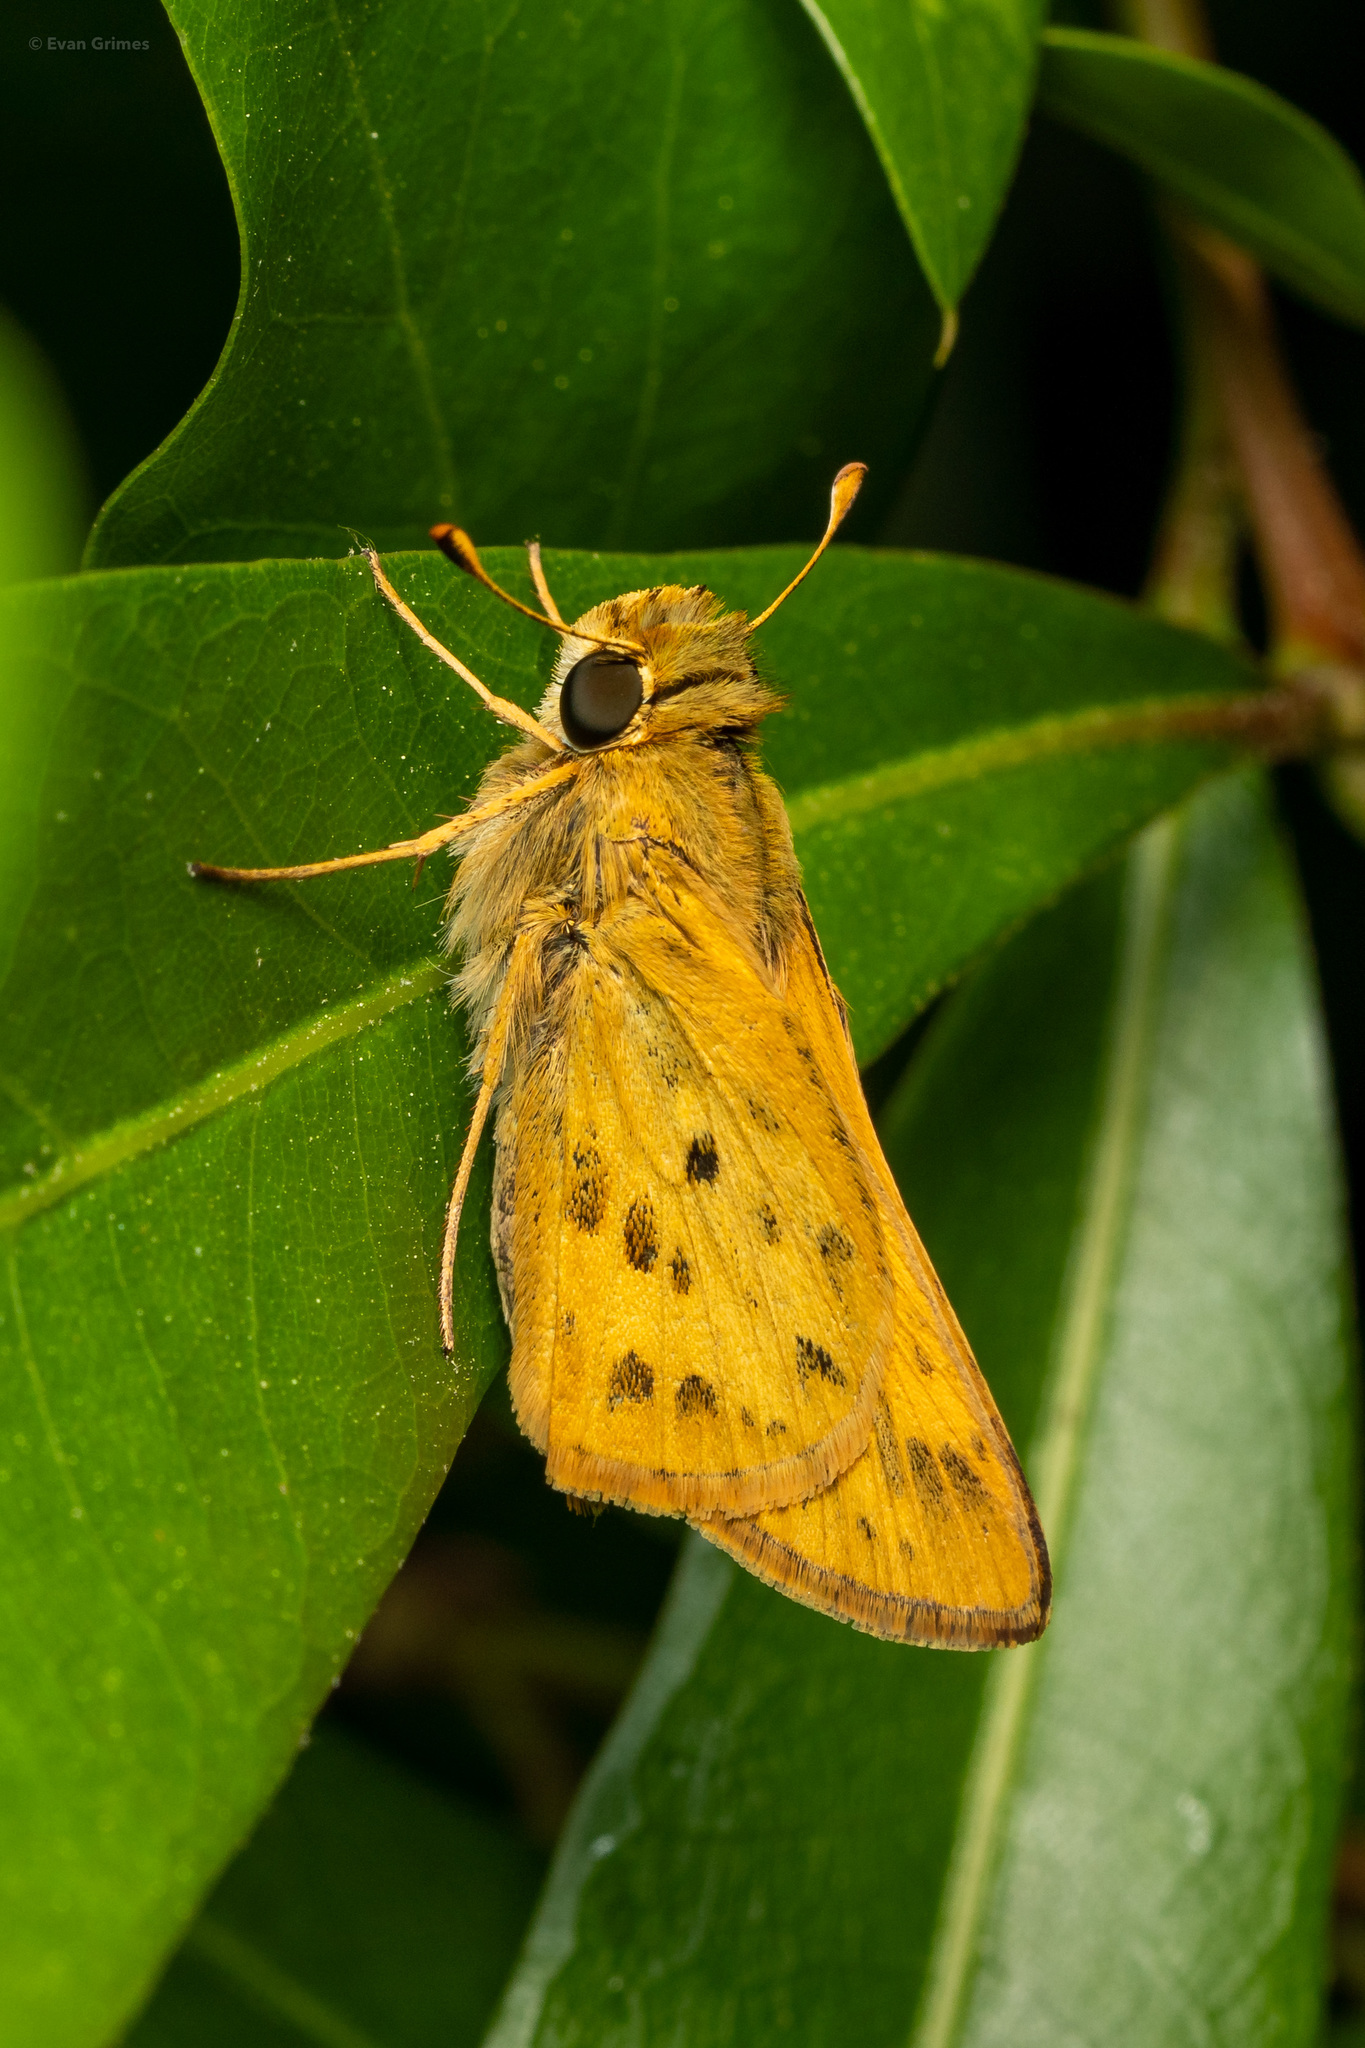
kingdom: Animalia
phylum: Arthropoda
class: Insecta
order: Lepidoptera
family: Hesperiidae
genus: Hylephila
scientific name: Hylephila phyleus
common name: Fiery skipper
